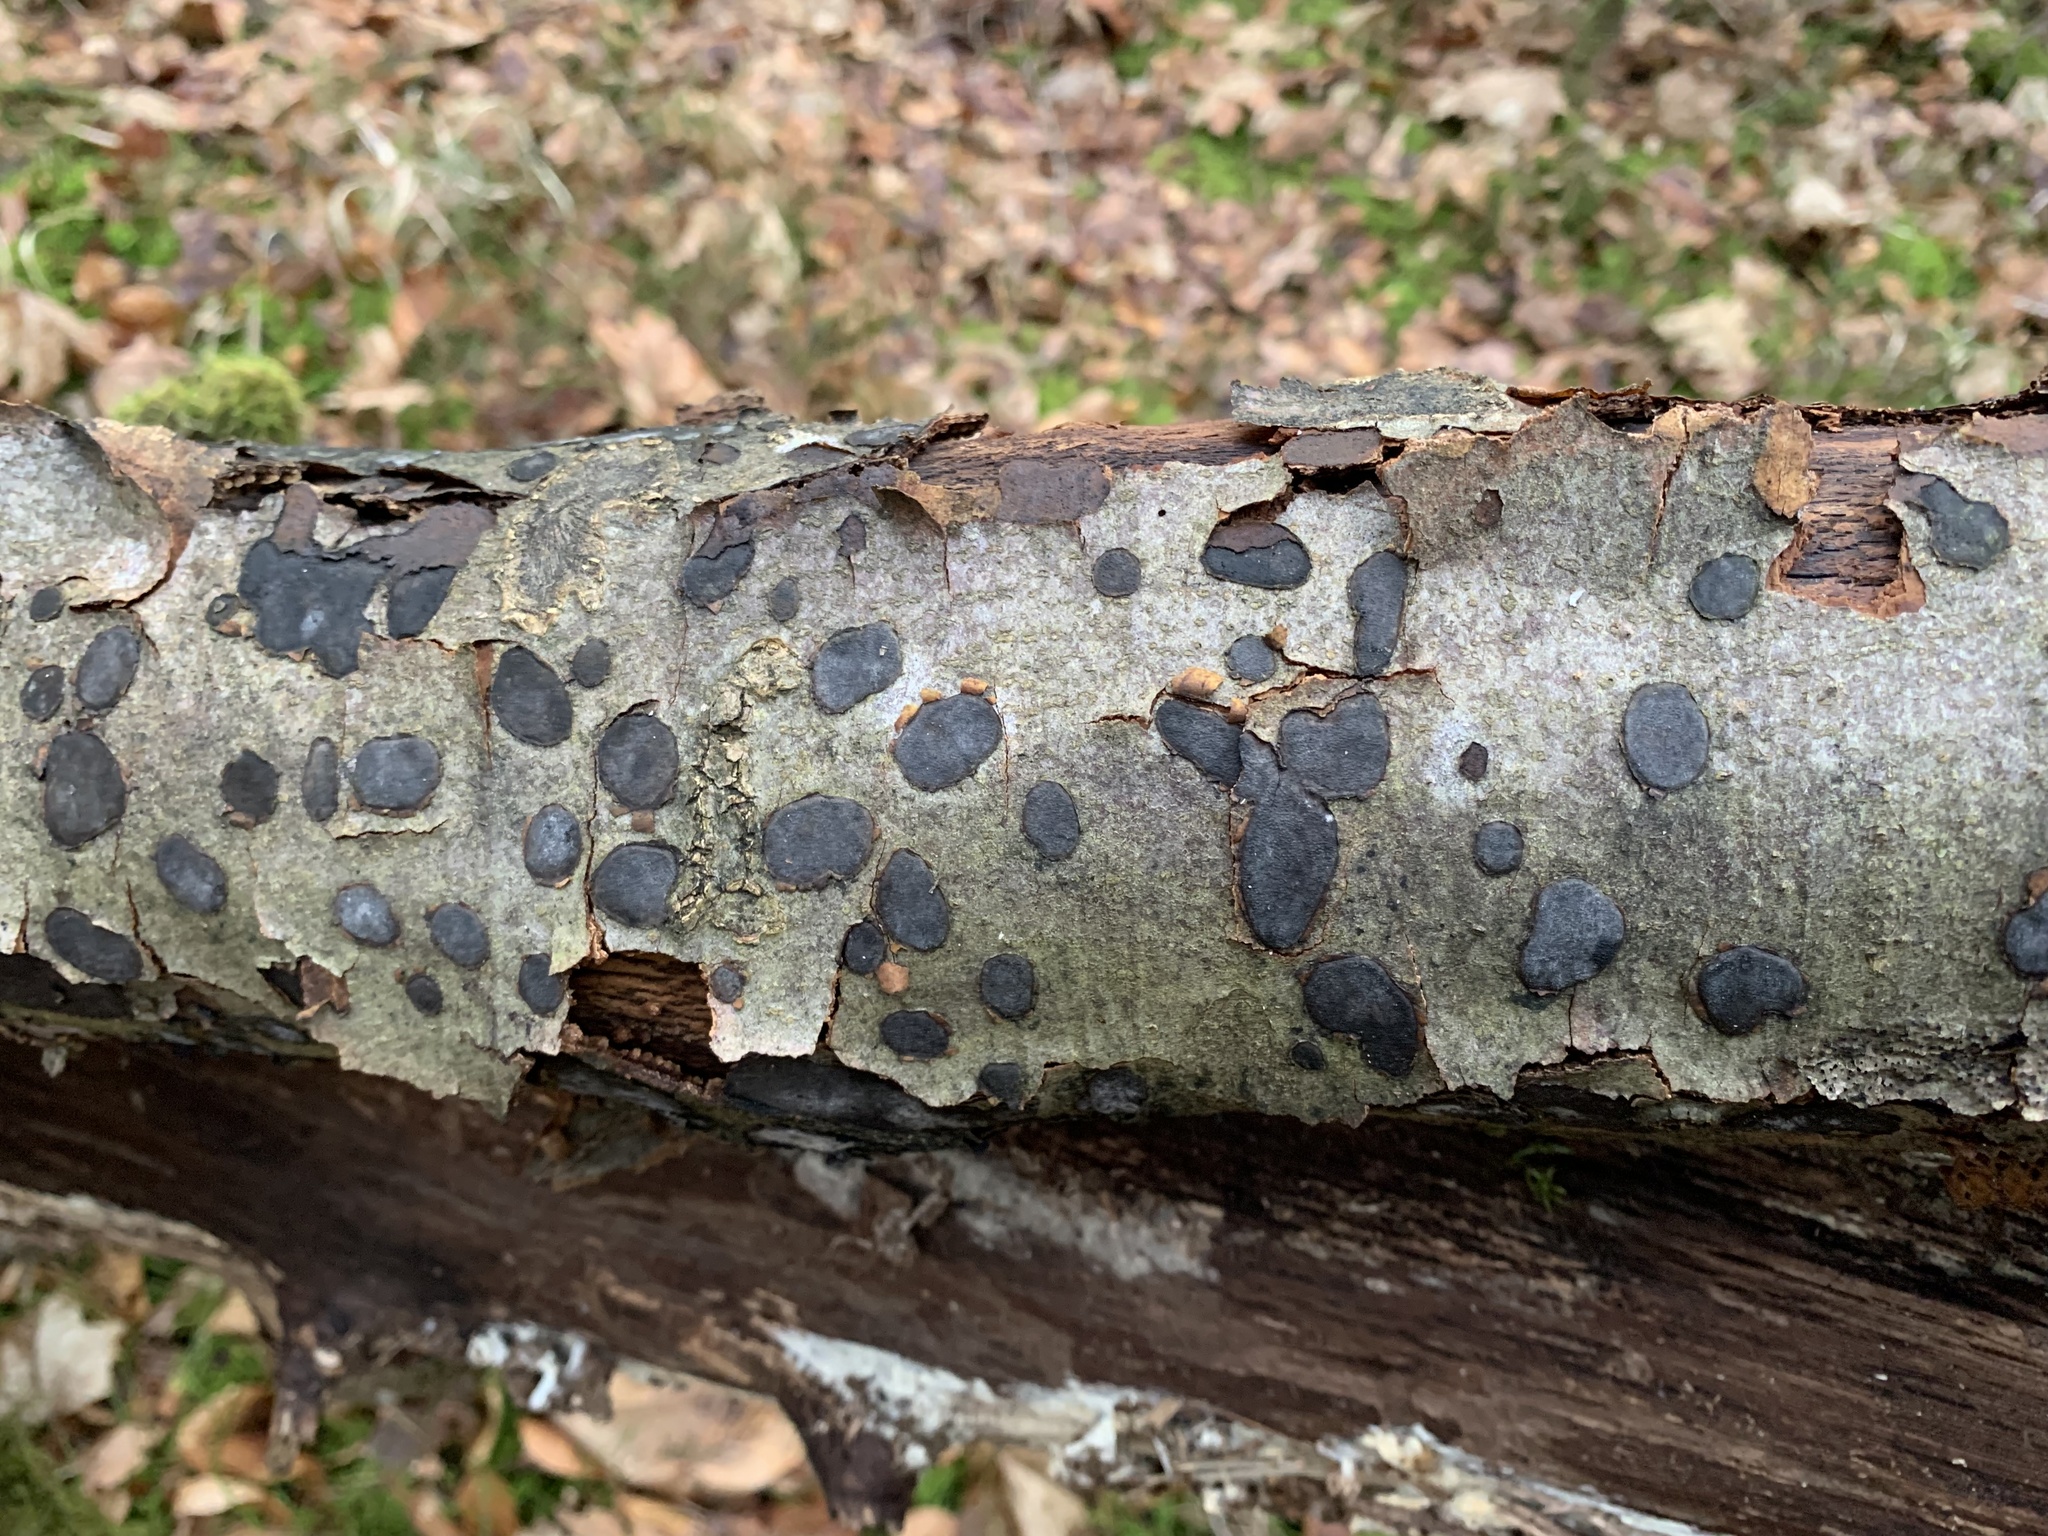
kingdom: Fungi
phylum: Ascomycota
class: Sordariomycetes
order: Xylariales
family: Graphostromataceae
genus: Biscogniauxia
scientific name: Biscogniauxia nummularia
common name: Beech tarcrust
